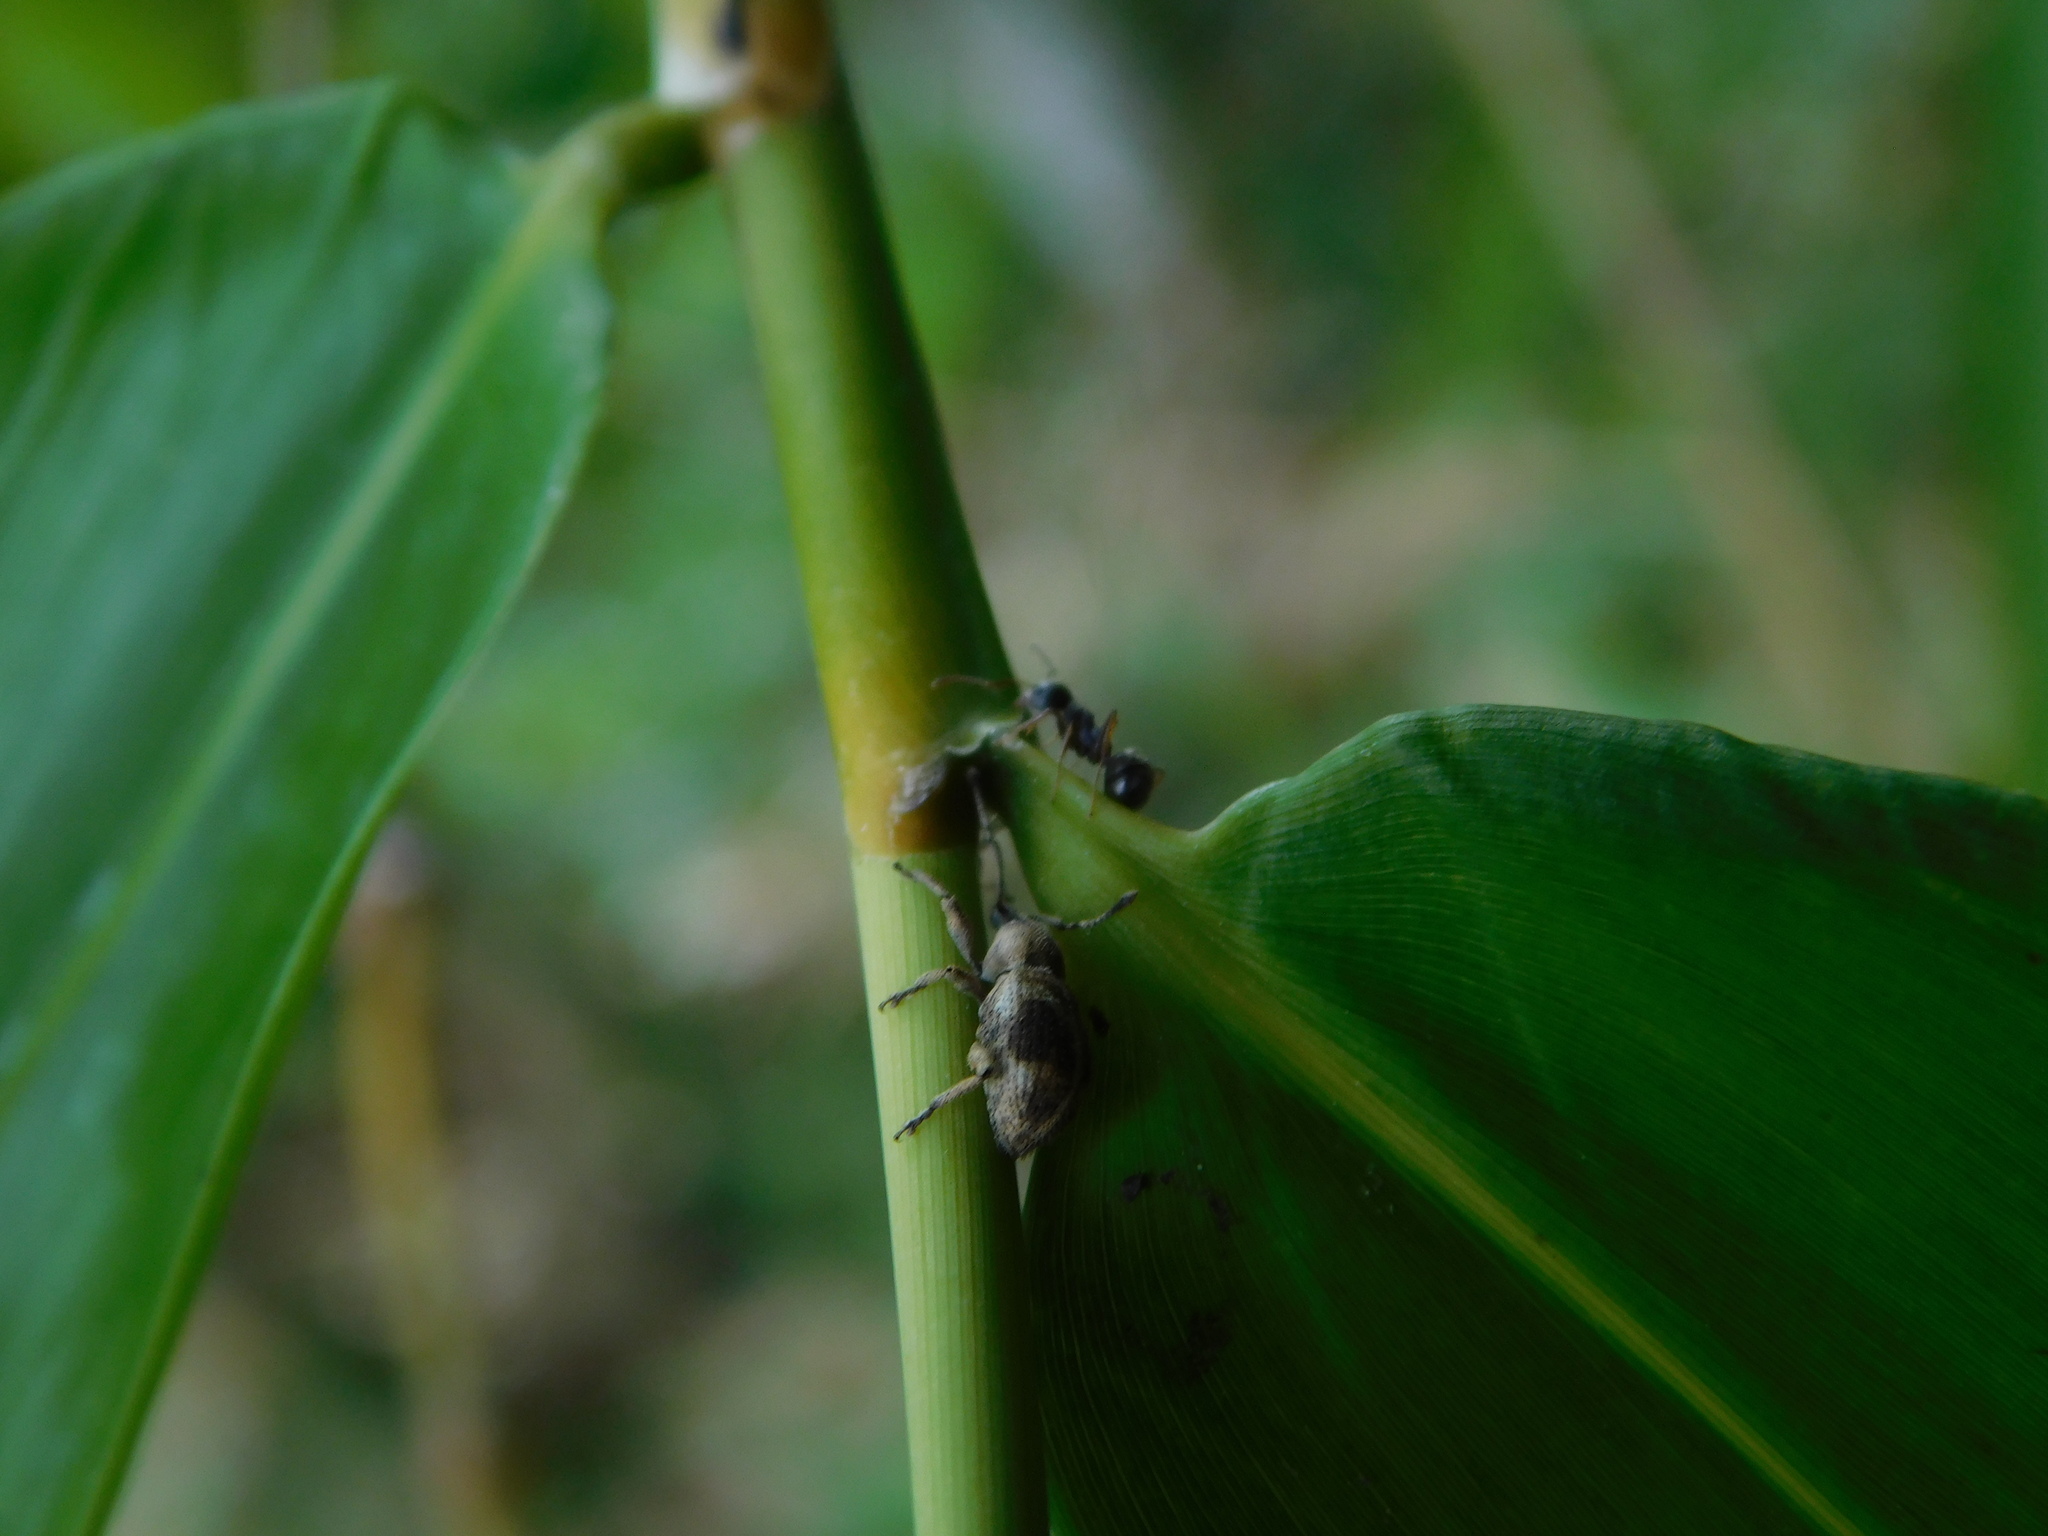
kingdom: Animalia
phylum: Arthropoda
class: Insecta
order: Coleoptera
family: Curculionidae
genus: Phytoscaphus
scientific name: Phytoscaphus triangularis
